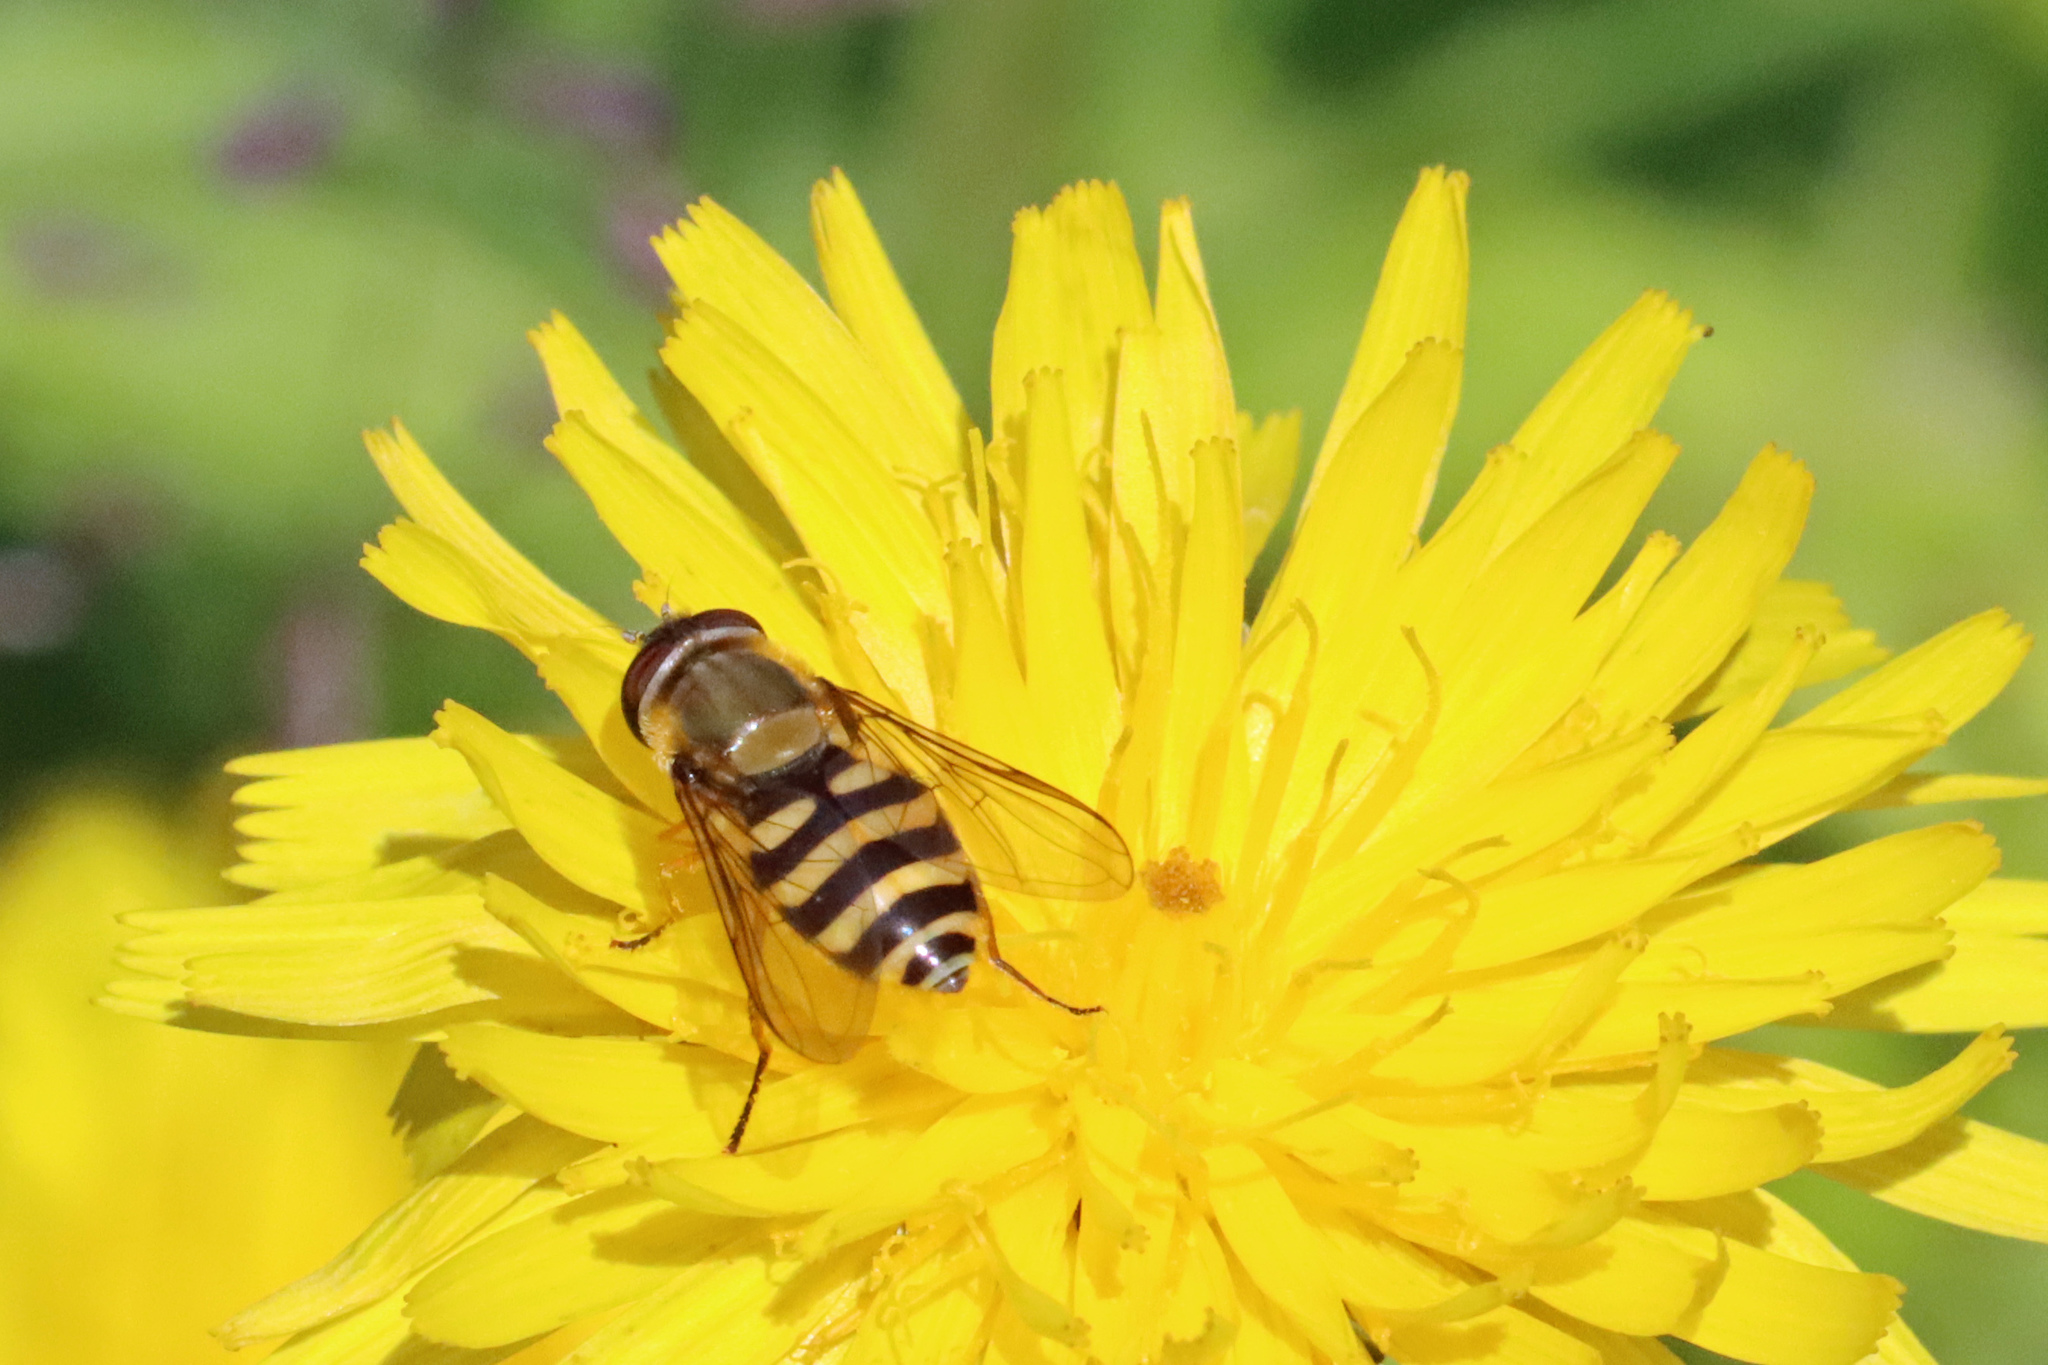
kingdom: Animalia
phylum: Arthropoda
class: Insecta
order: Diptera
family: Syrphidae
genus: Syrphus
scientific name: Syrphus
